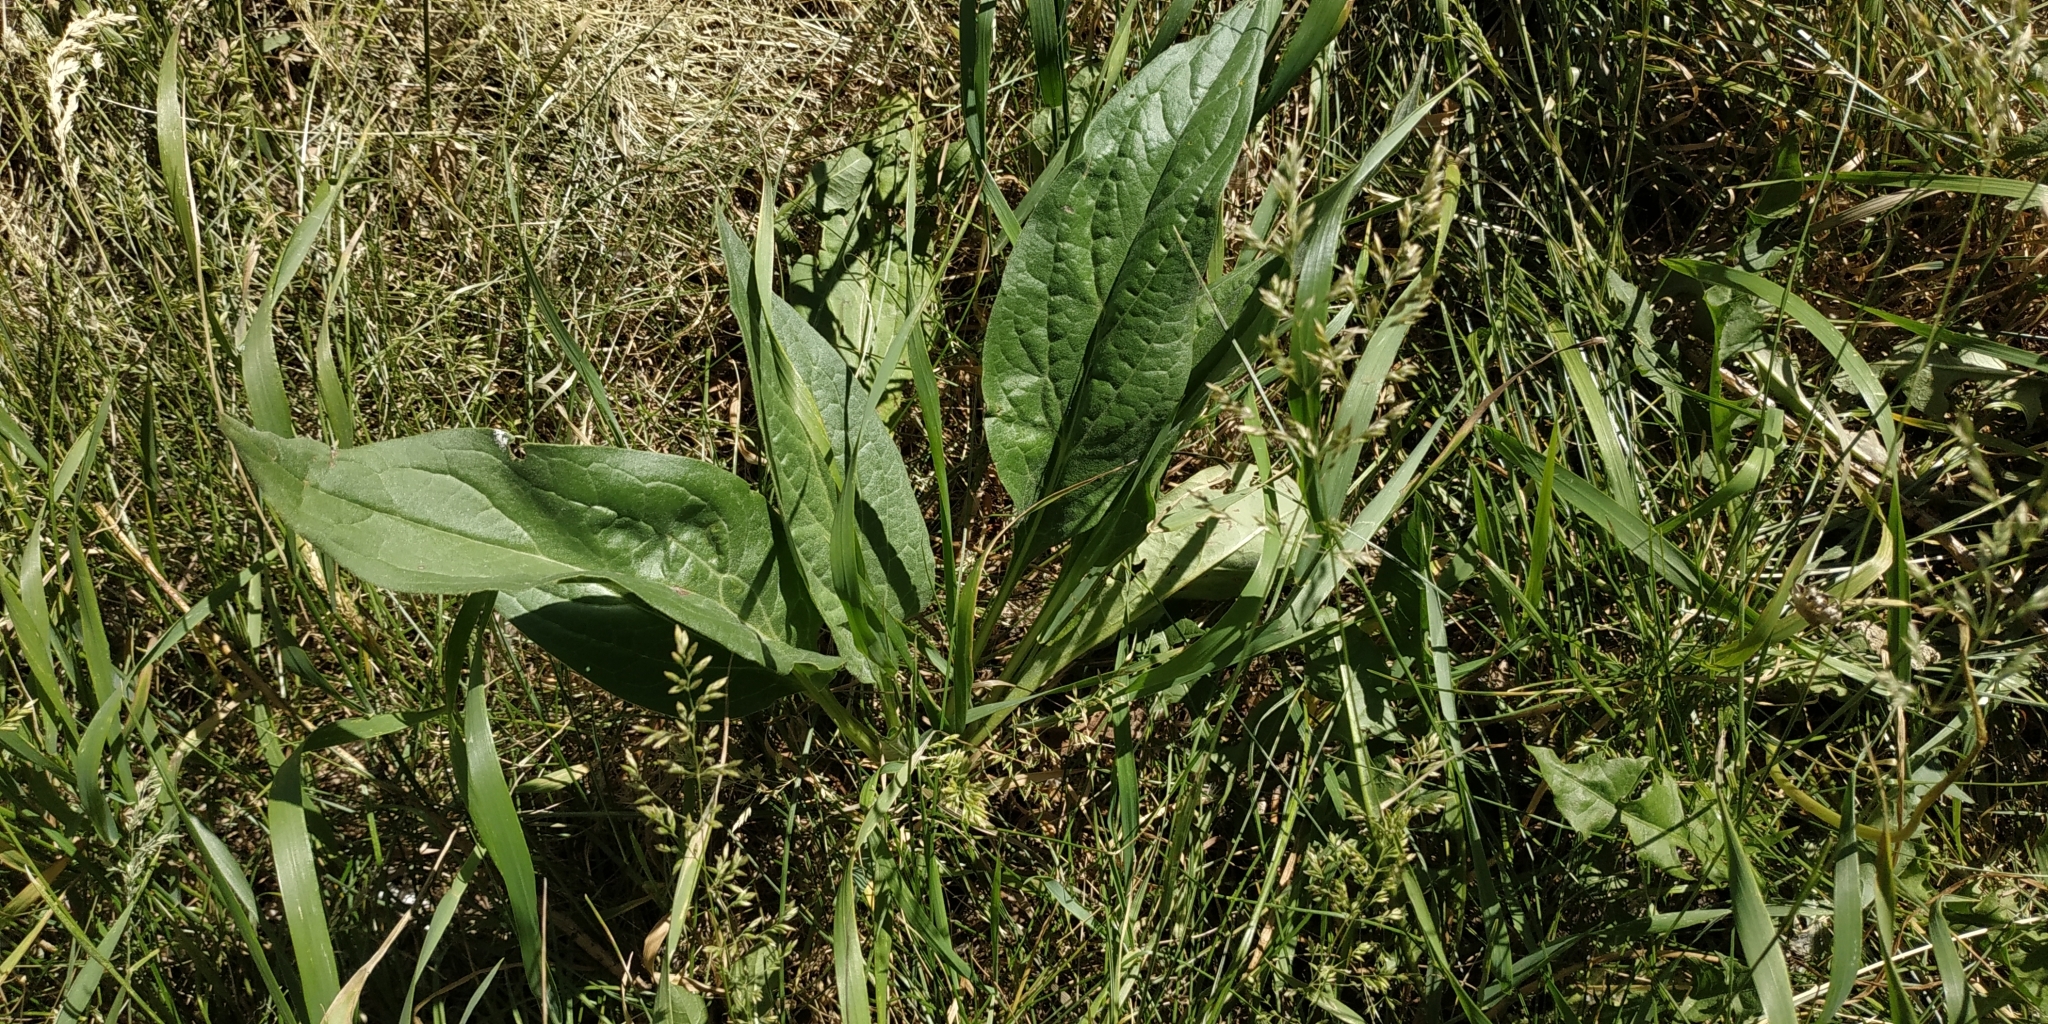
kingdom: Plantae
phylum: Tracheophyta
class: Magnoliopsida
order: Boraginales
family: Boraginaceae
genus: Cynoglossum
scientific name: Cynoglossum officinale
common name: Hound's-tongue
